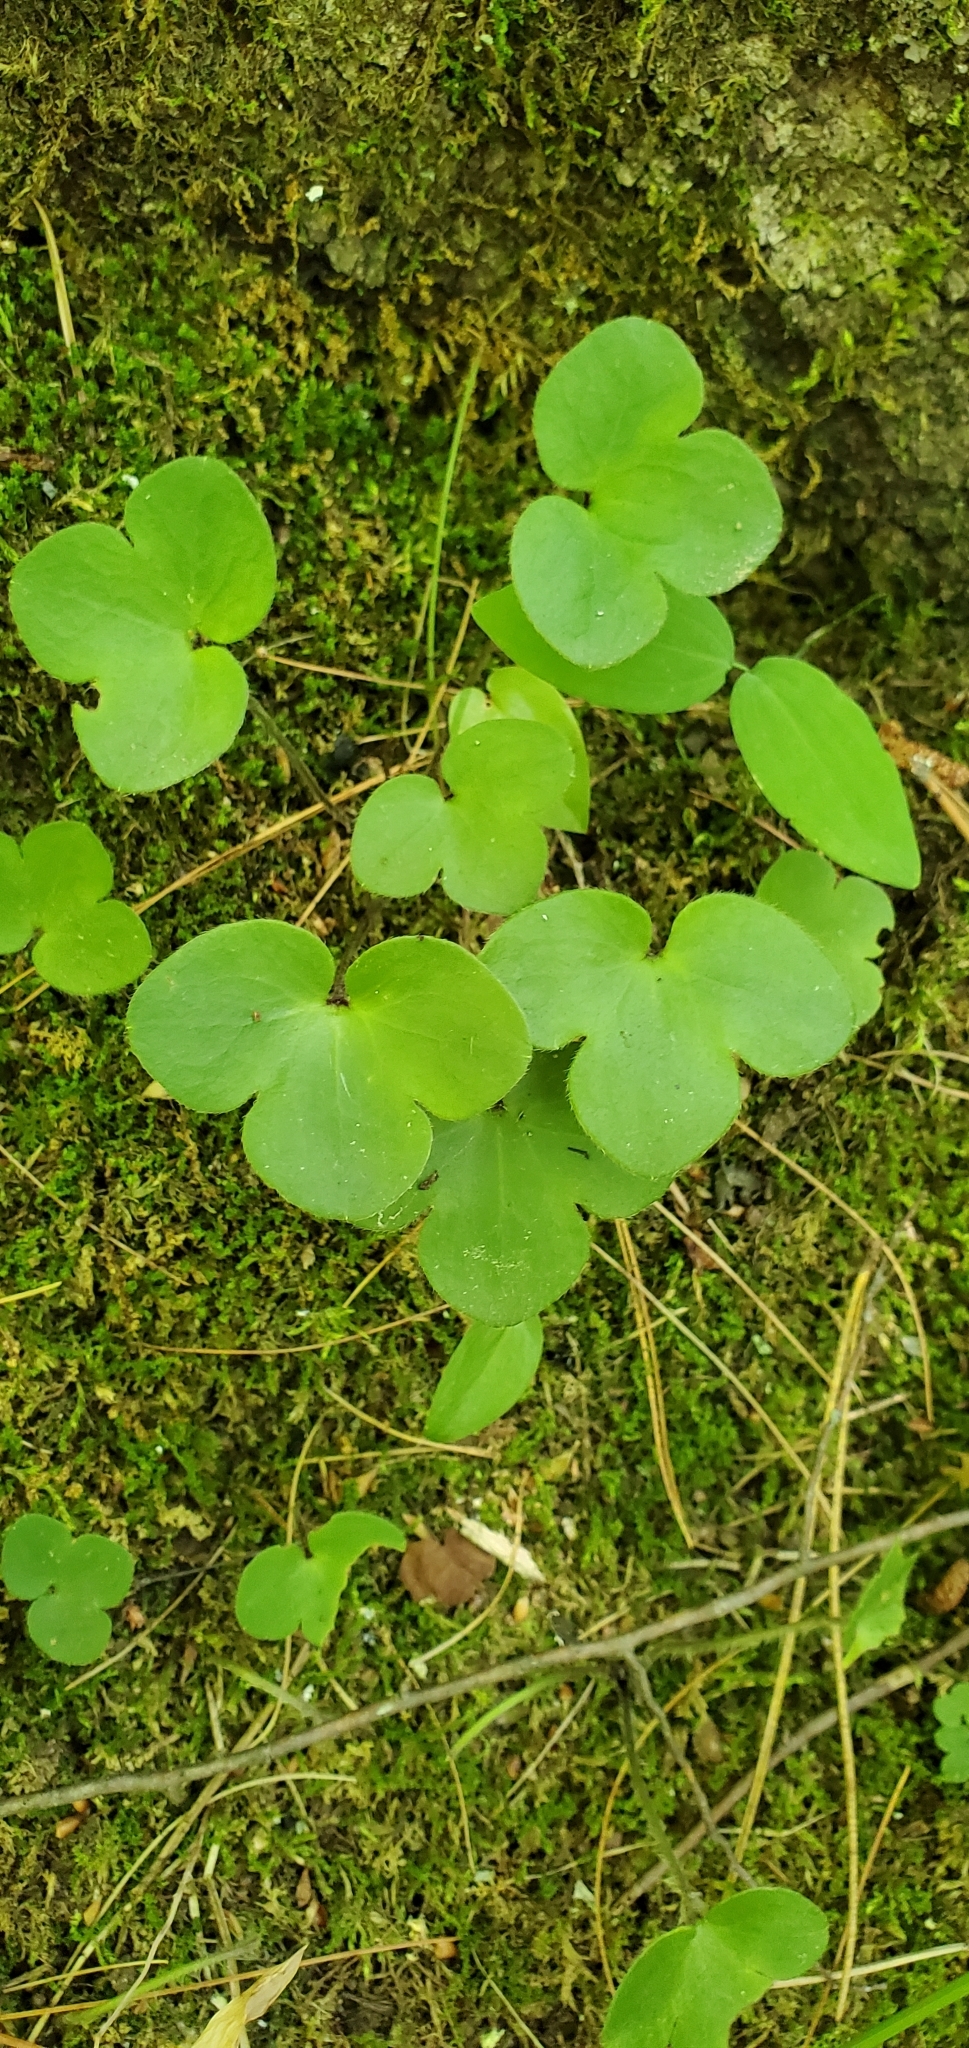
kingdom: Plantae
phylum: Tracheophyta
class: Magnoliopsida
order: Ranunculales
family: Ranunculaceae
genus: Hepatica
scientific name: Hepatica americana
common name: American hepatica
